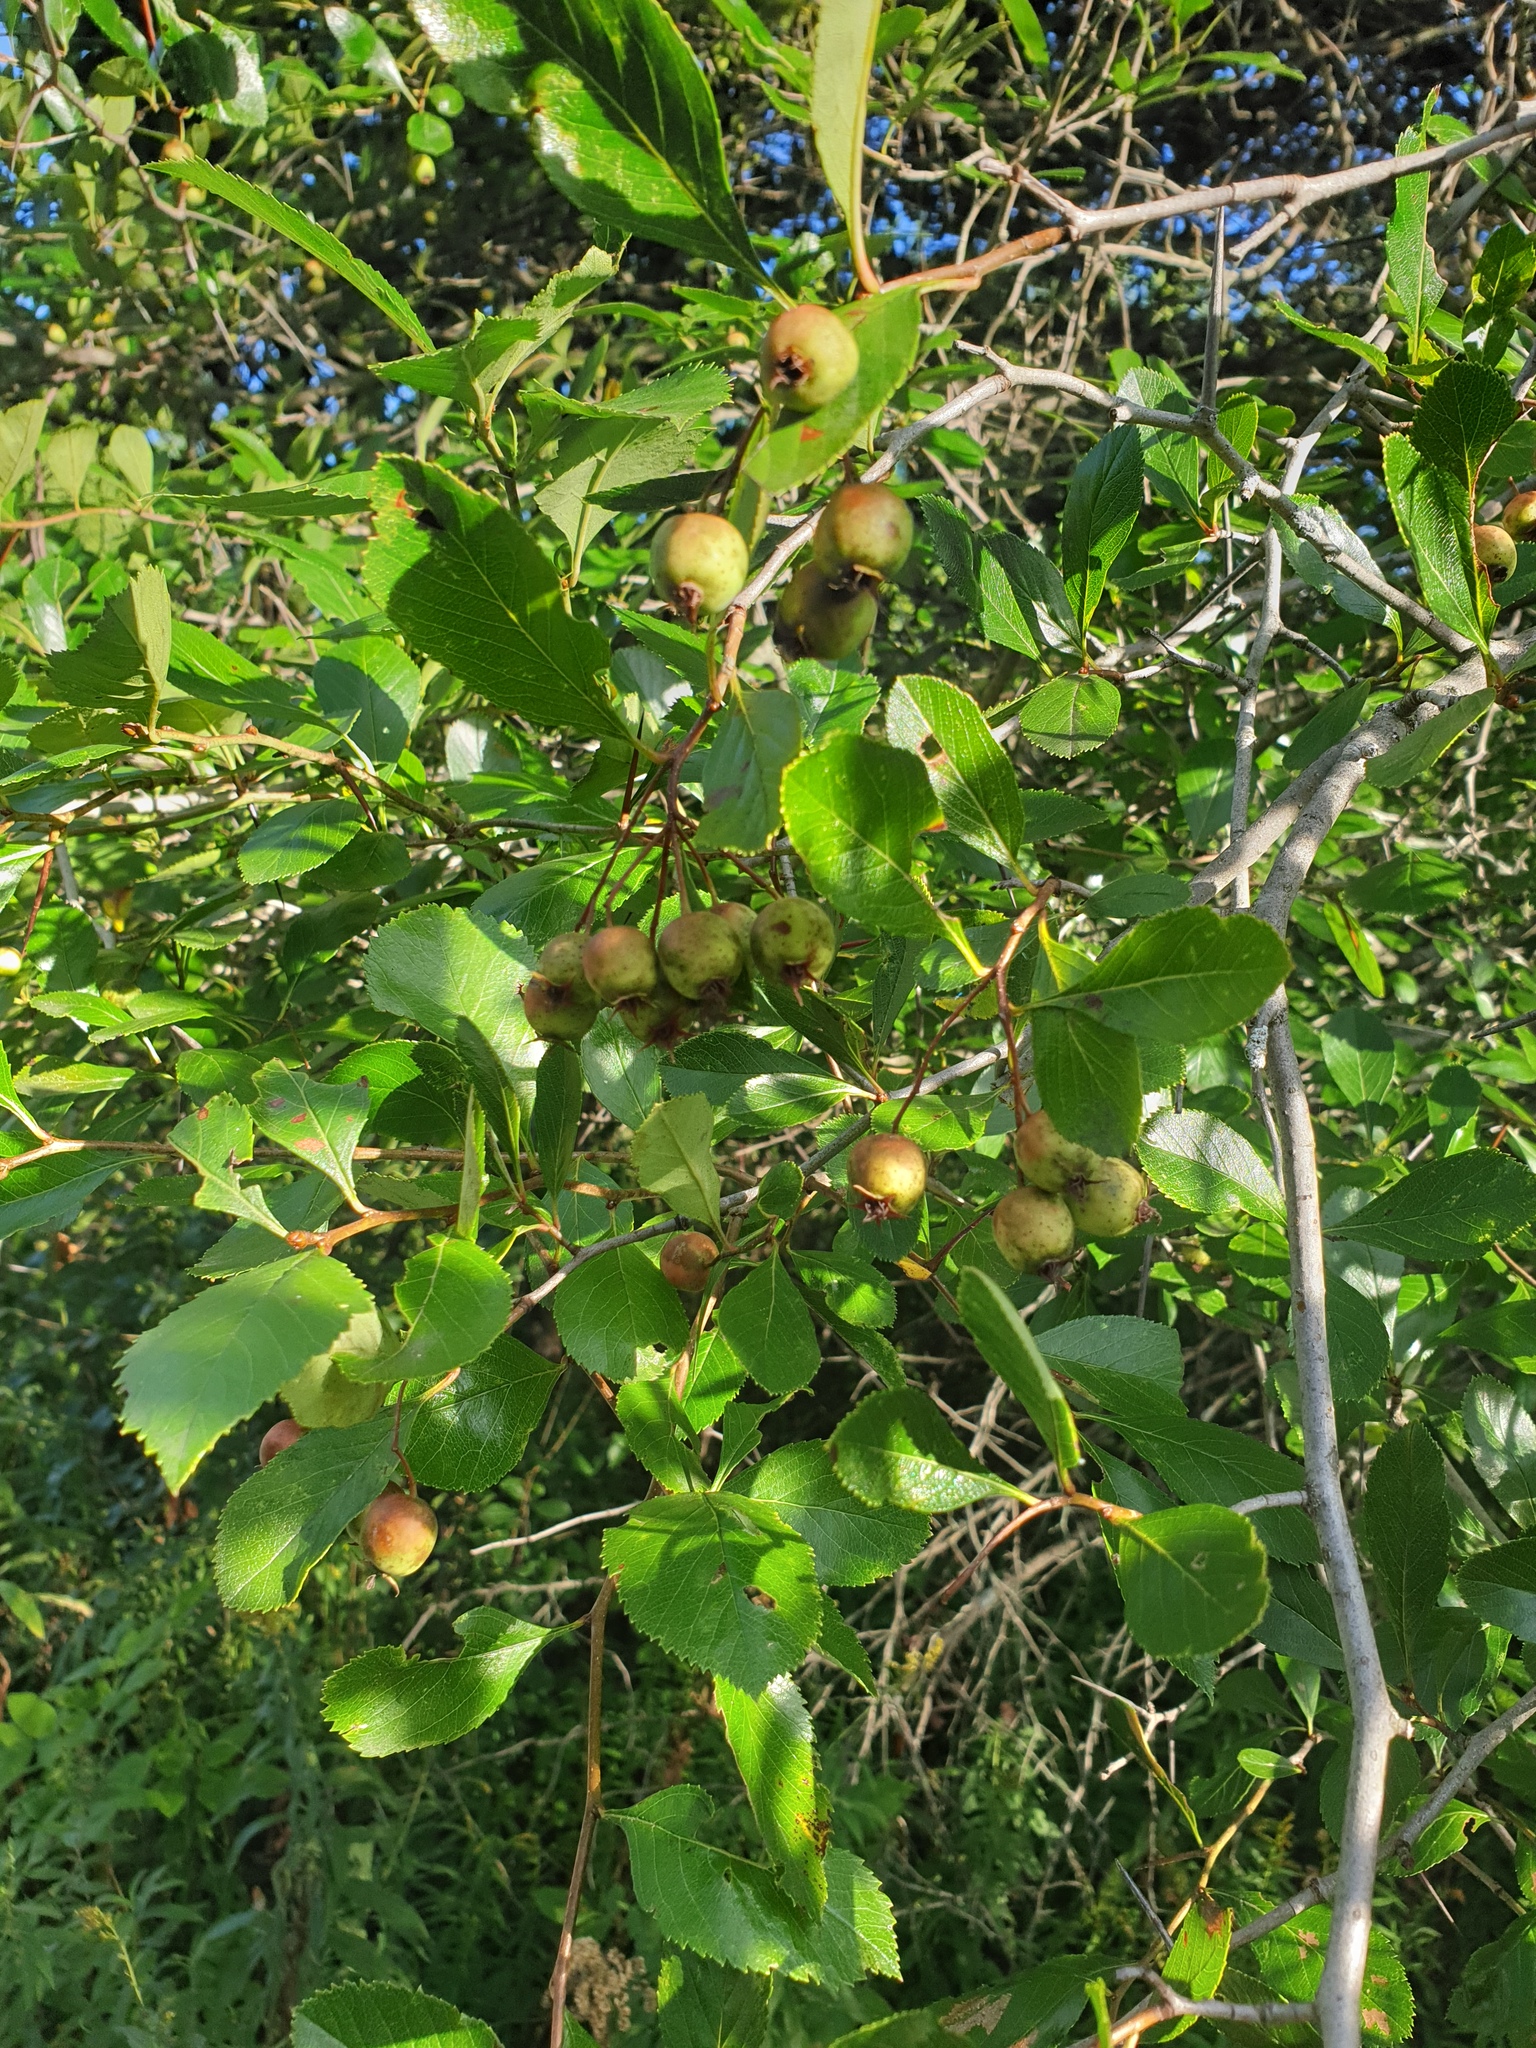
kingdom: Plantae
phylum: Tracheophyta
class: Magnoliopsida
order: Rosales
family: Rosaceae
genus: Crataegus
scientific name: Crataegus crus-galli
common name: Cockspurthorn
